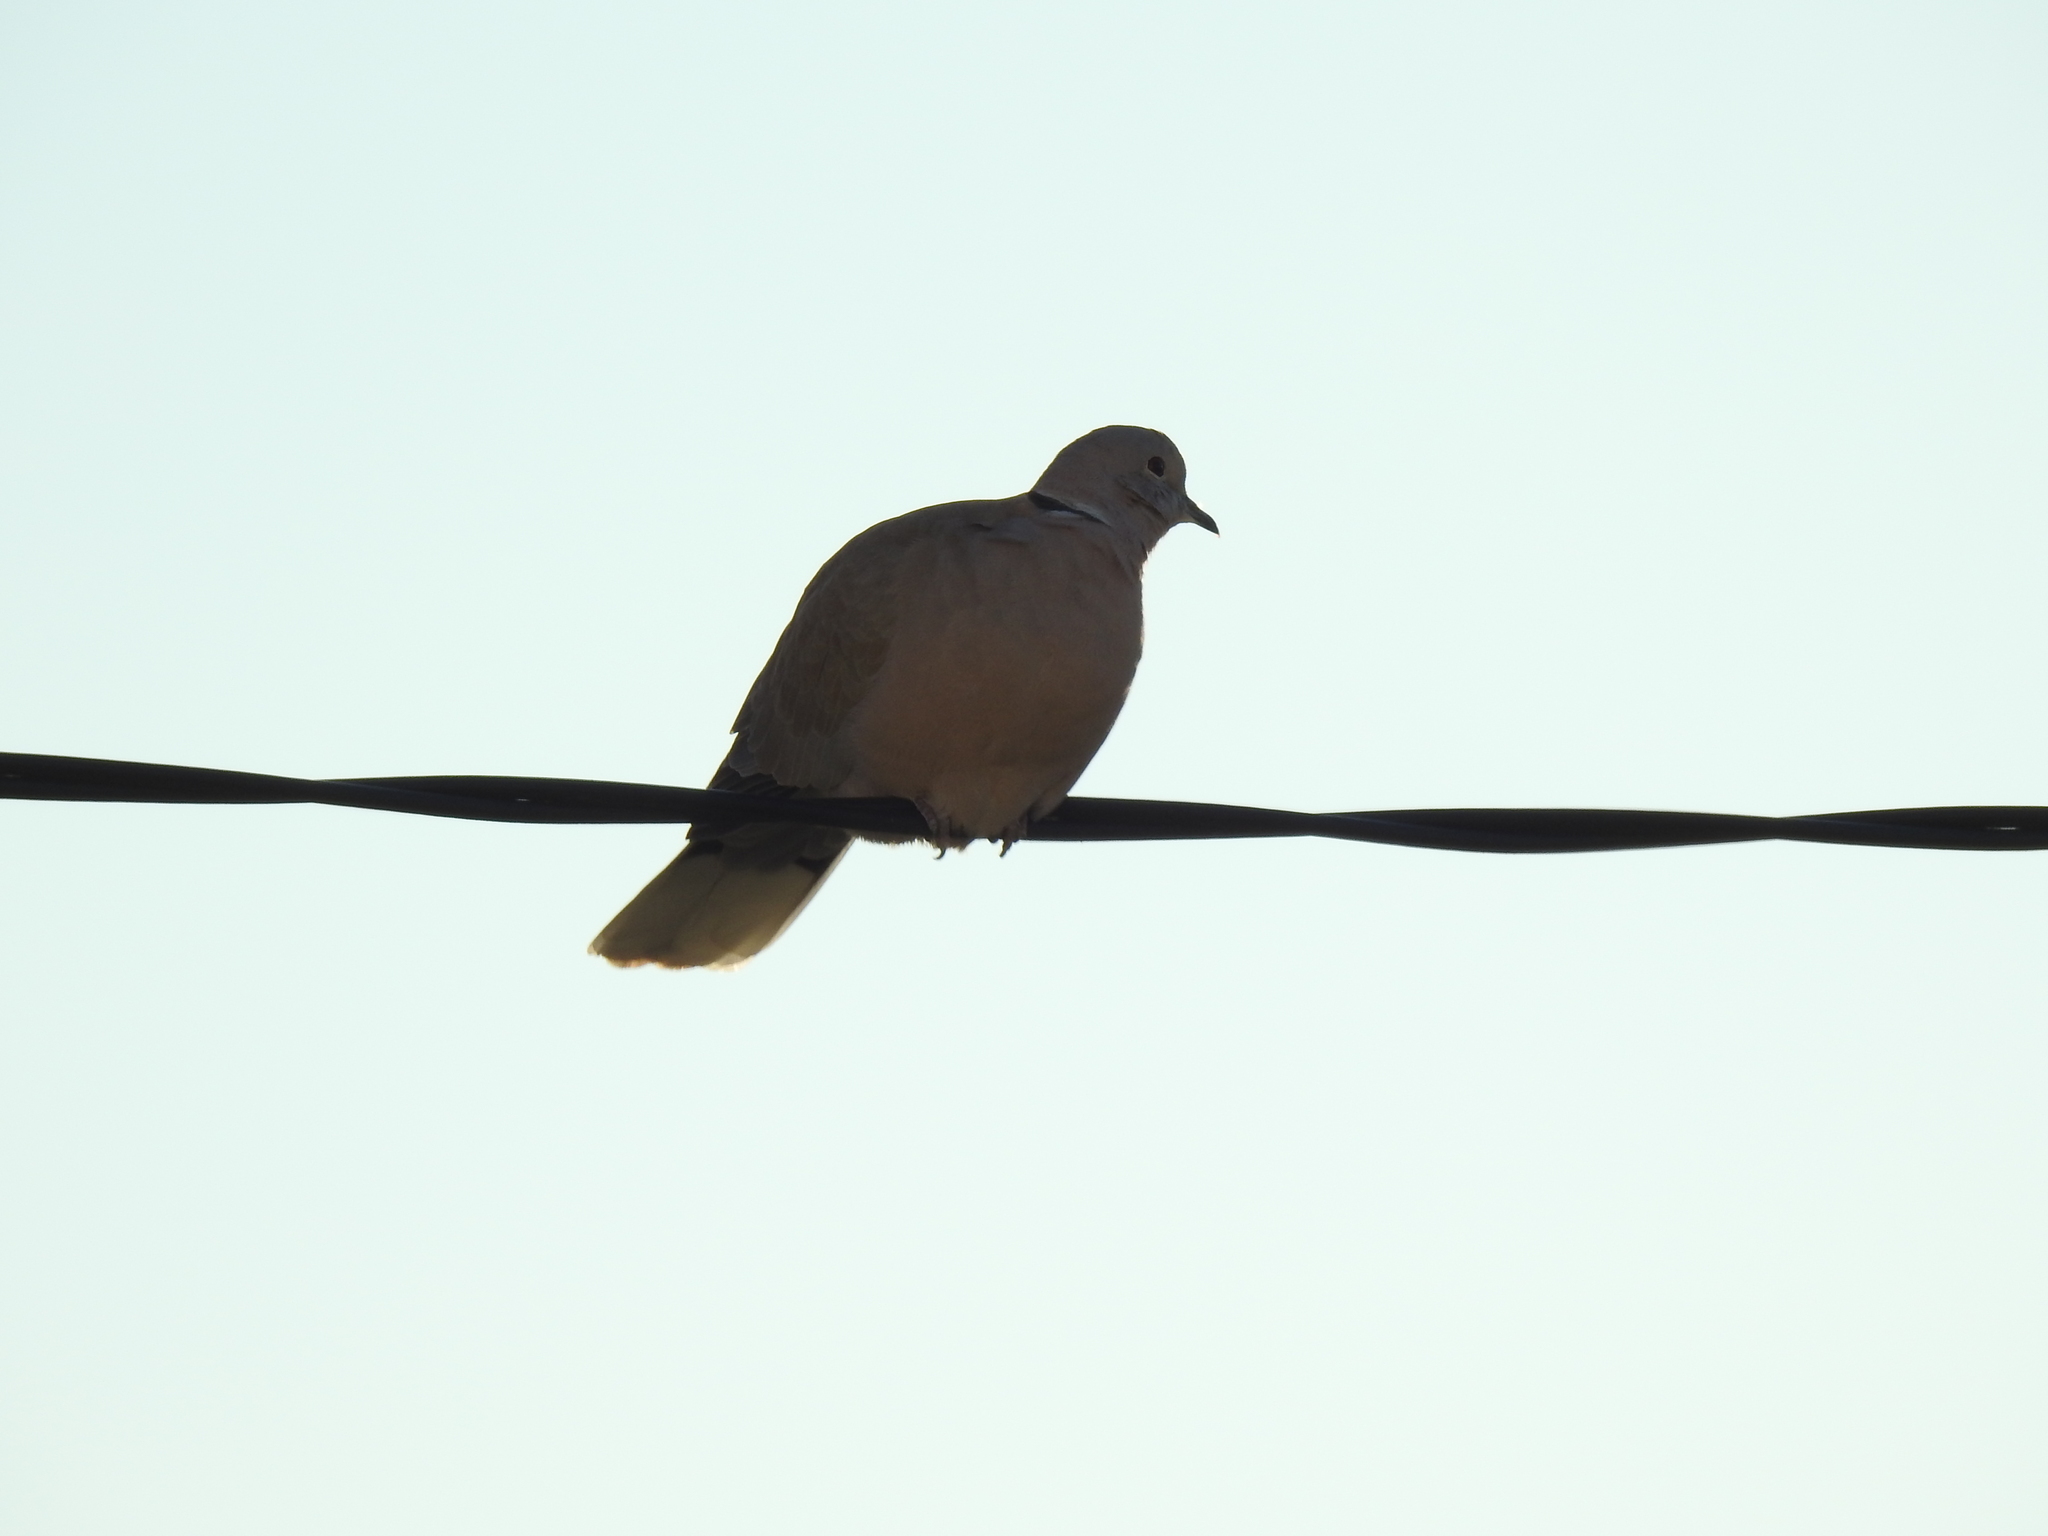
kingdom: Animalia
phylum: Chordata
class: Aves
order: Columbiformes
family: Columbidae
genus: Streptopelia
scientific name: Streptopelia decaocto
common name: Eurasian collared dove
